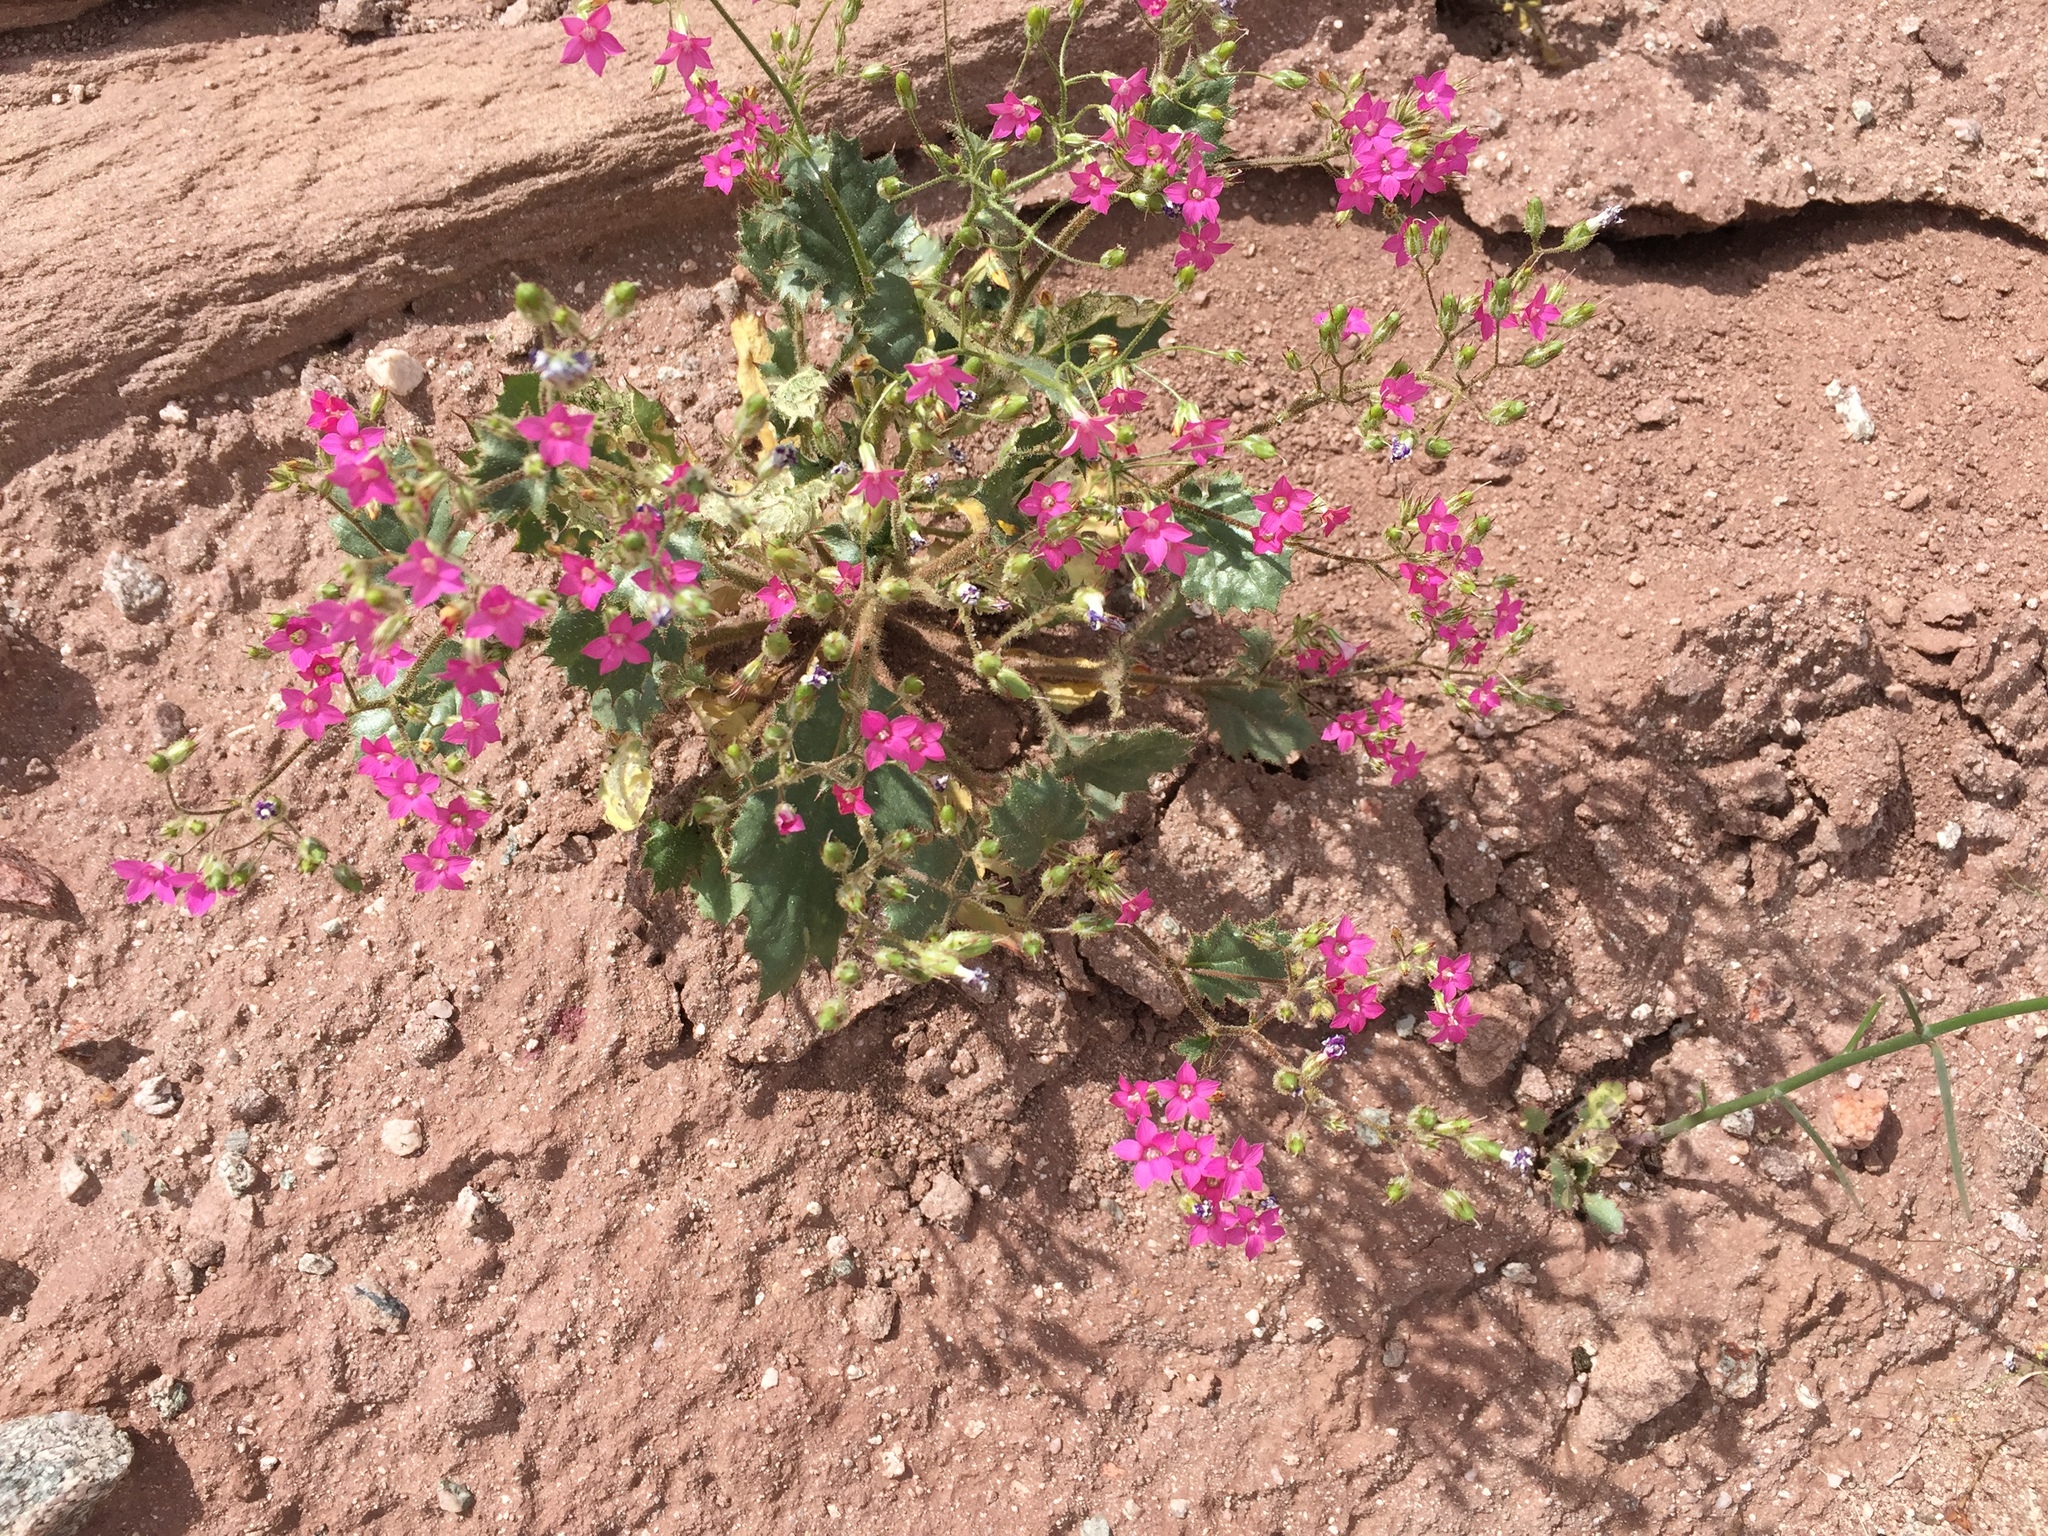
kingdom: Plantae
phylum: Tracheophyta
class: Magnoliopsida
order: Ericales
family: Polemoniaceae
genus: Aliciella
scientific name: Aliciella latifolia
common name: Broad-leaf gilia
